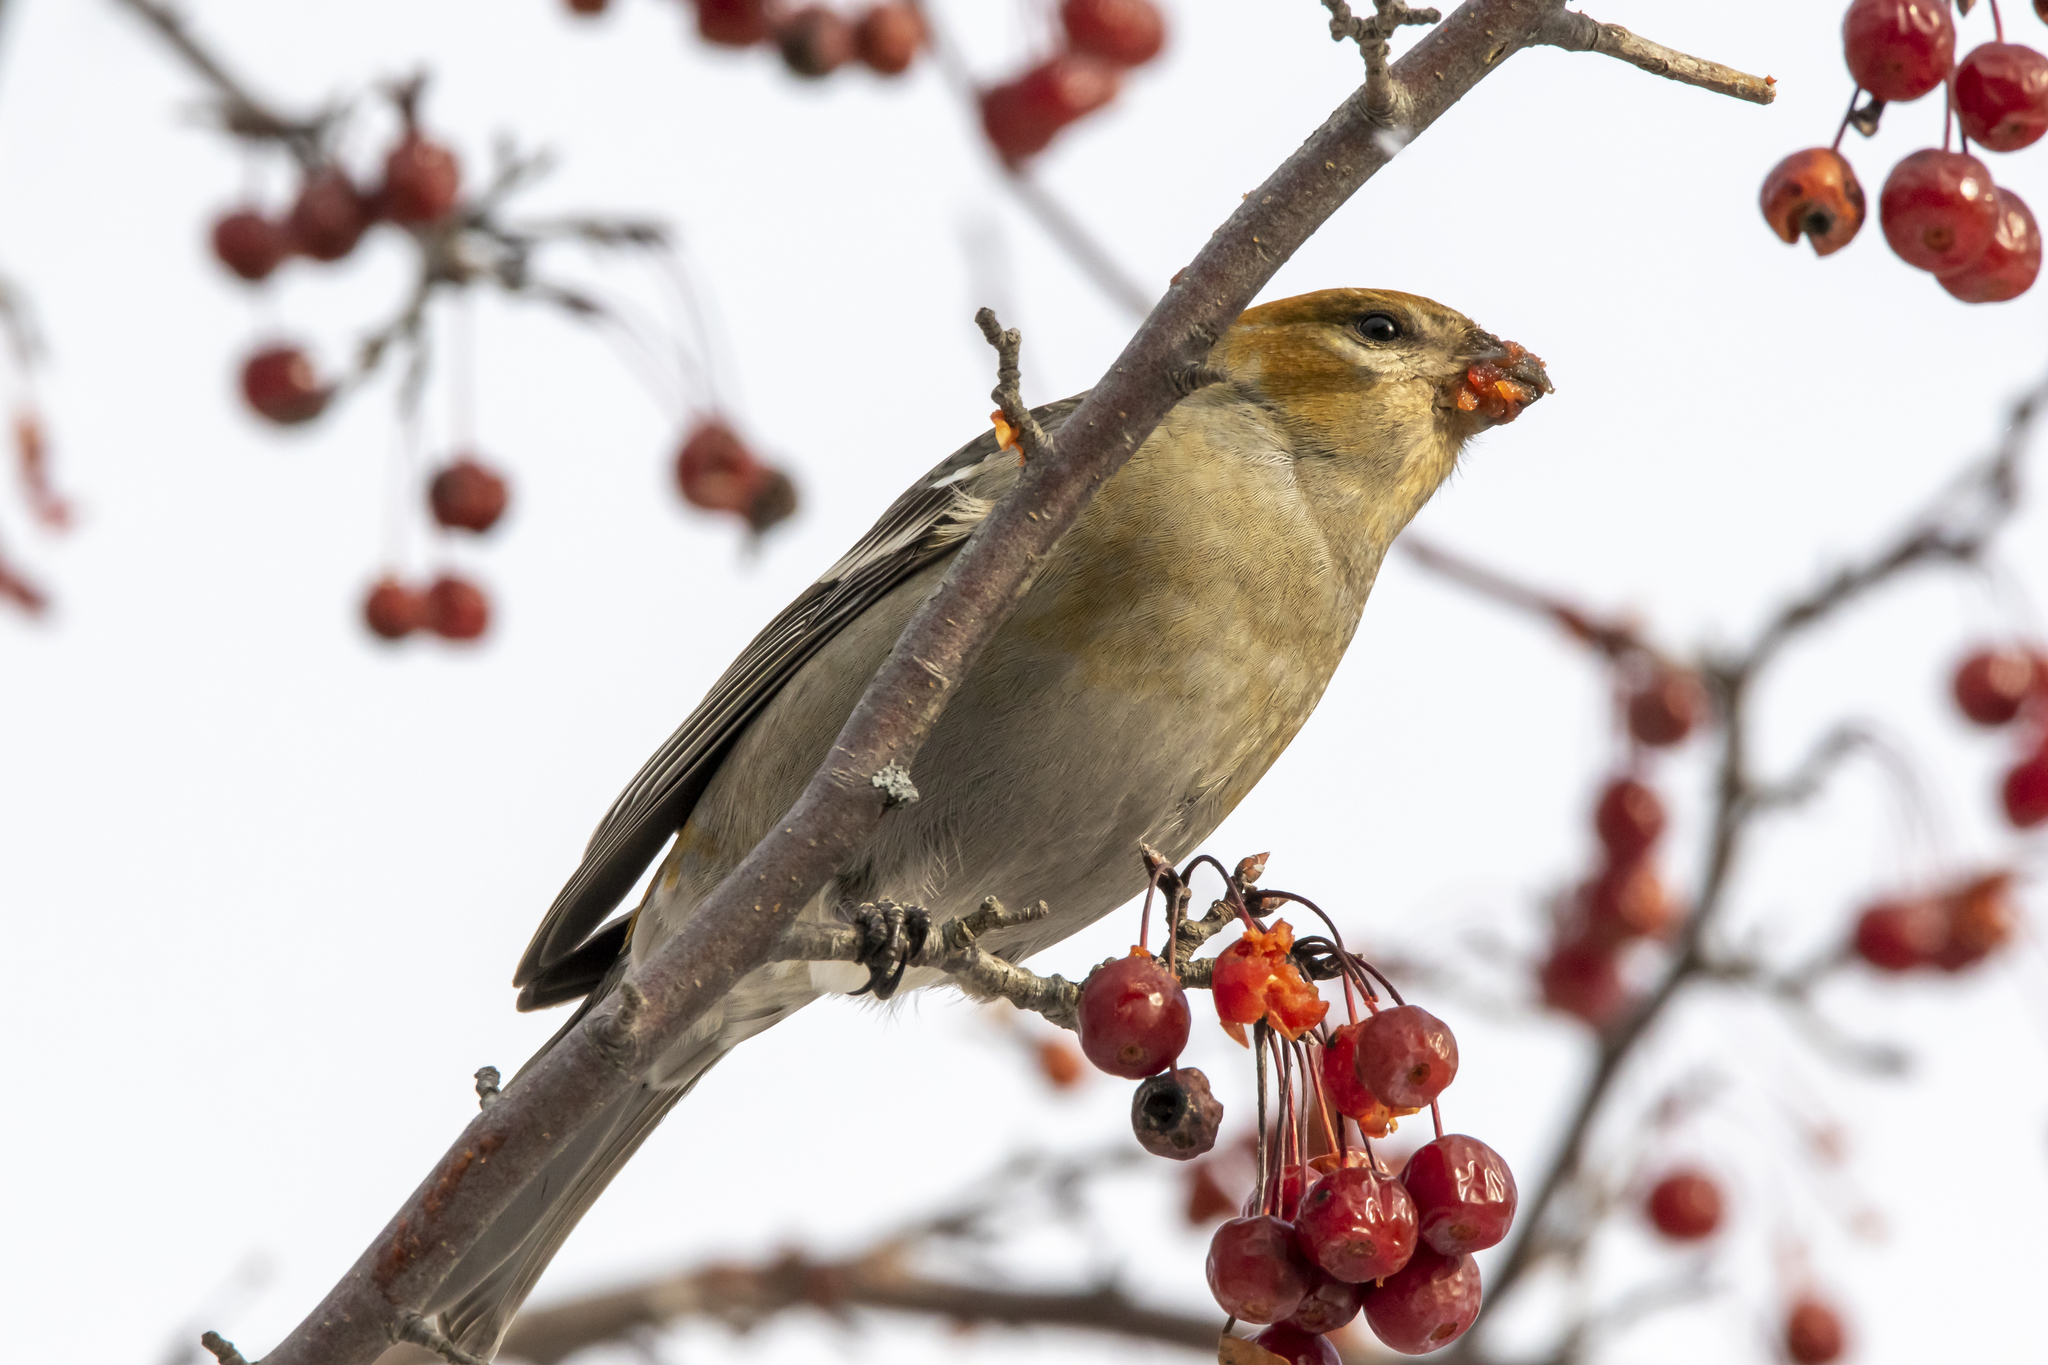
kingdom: Animalia
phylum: Chordata
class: Aves
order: Passeriformes
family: Fringillidae
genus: Pinicola
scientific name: Pinicola enucleator
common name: Pine grosbeak
